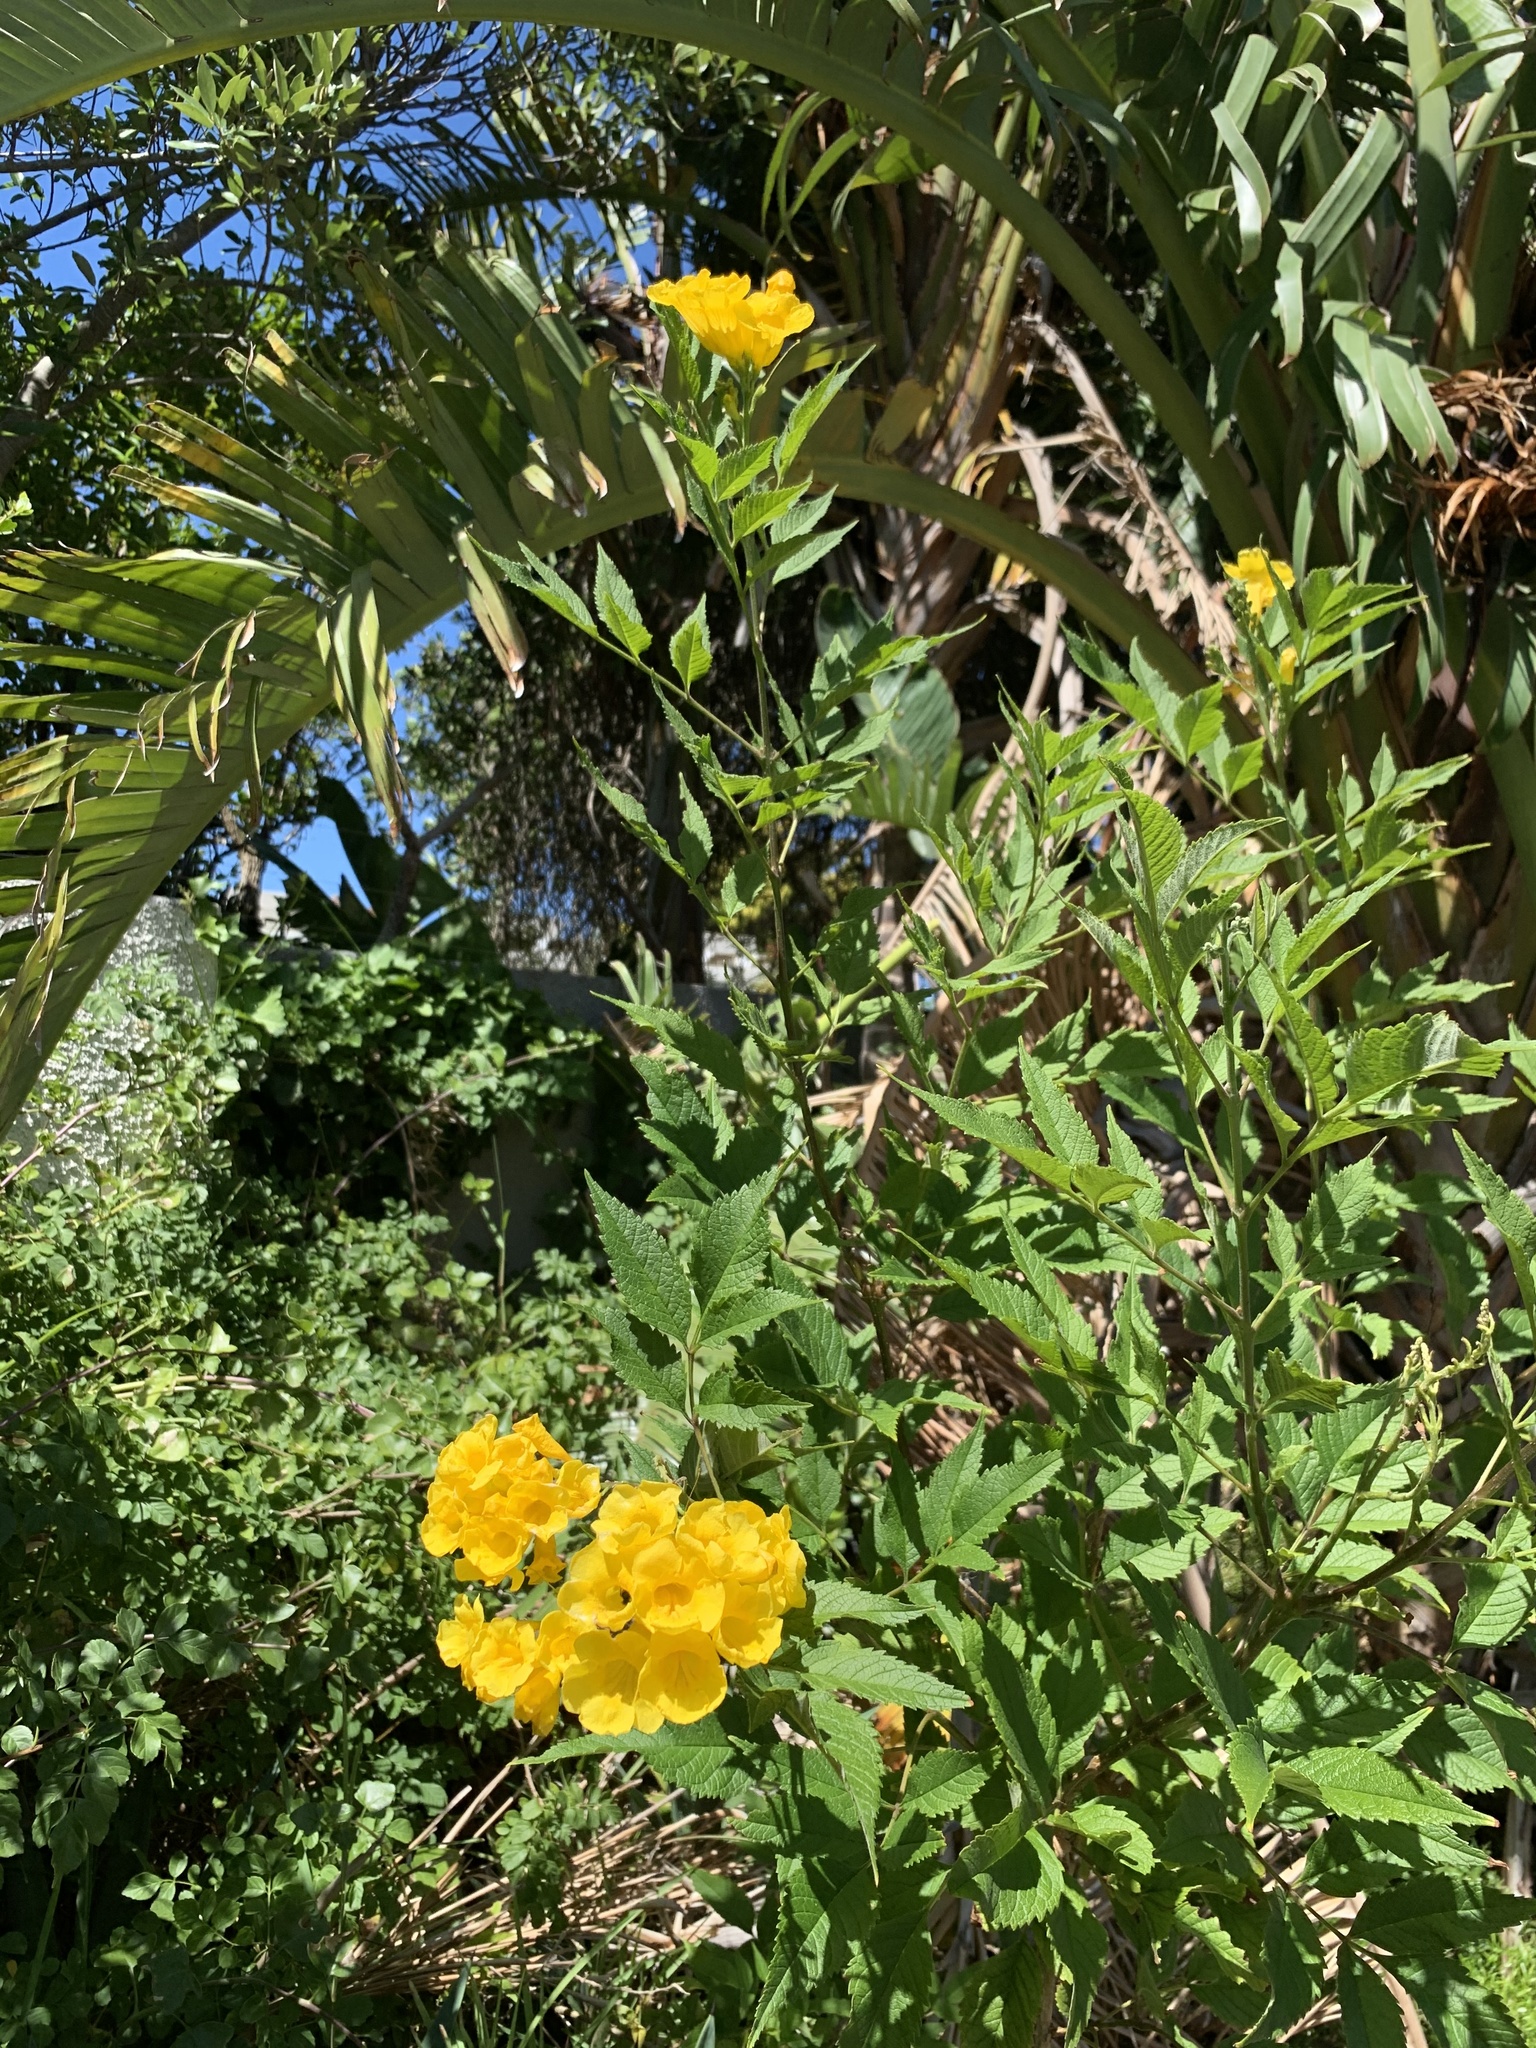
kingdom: Plantae
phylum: Tracheophyta
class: Magnoliopsida
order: Lamiales
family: Bignoniaceae
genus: Tecoma
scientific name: Tecoma stans
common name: Yellow trumpetbush
